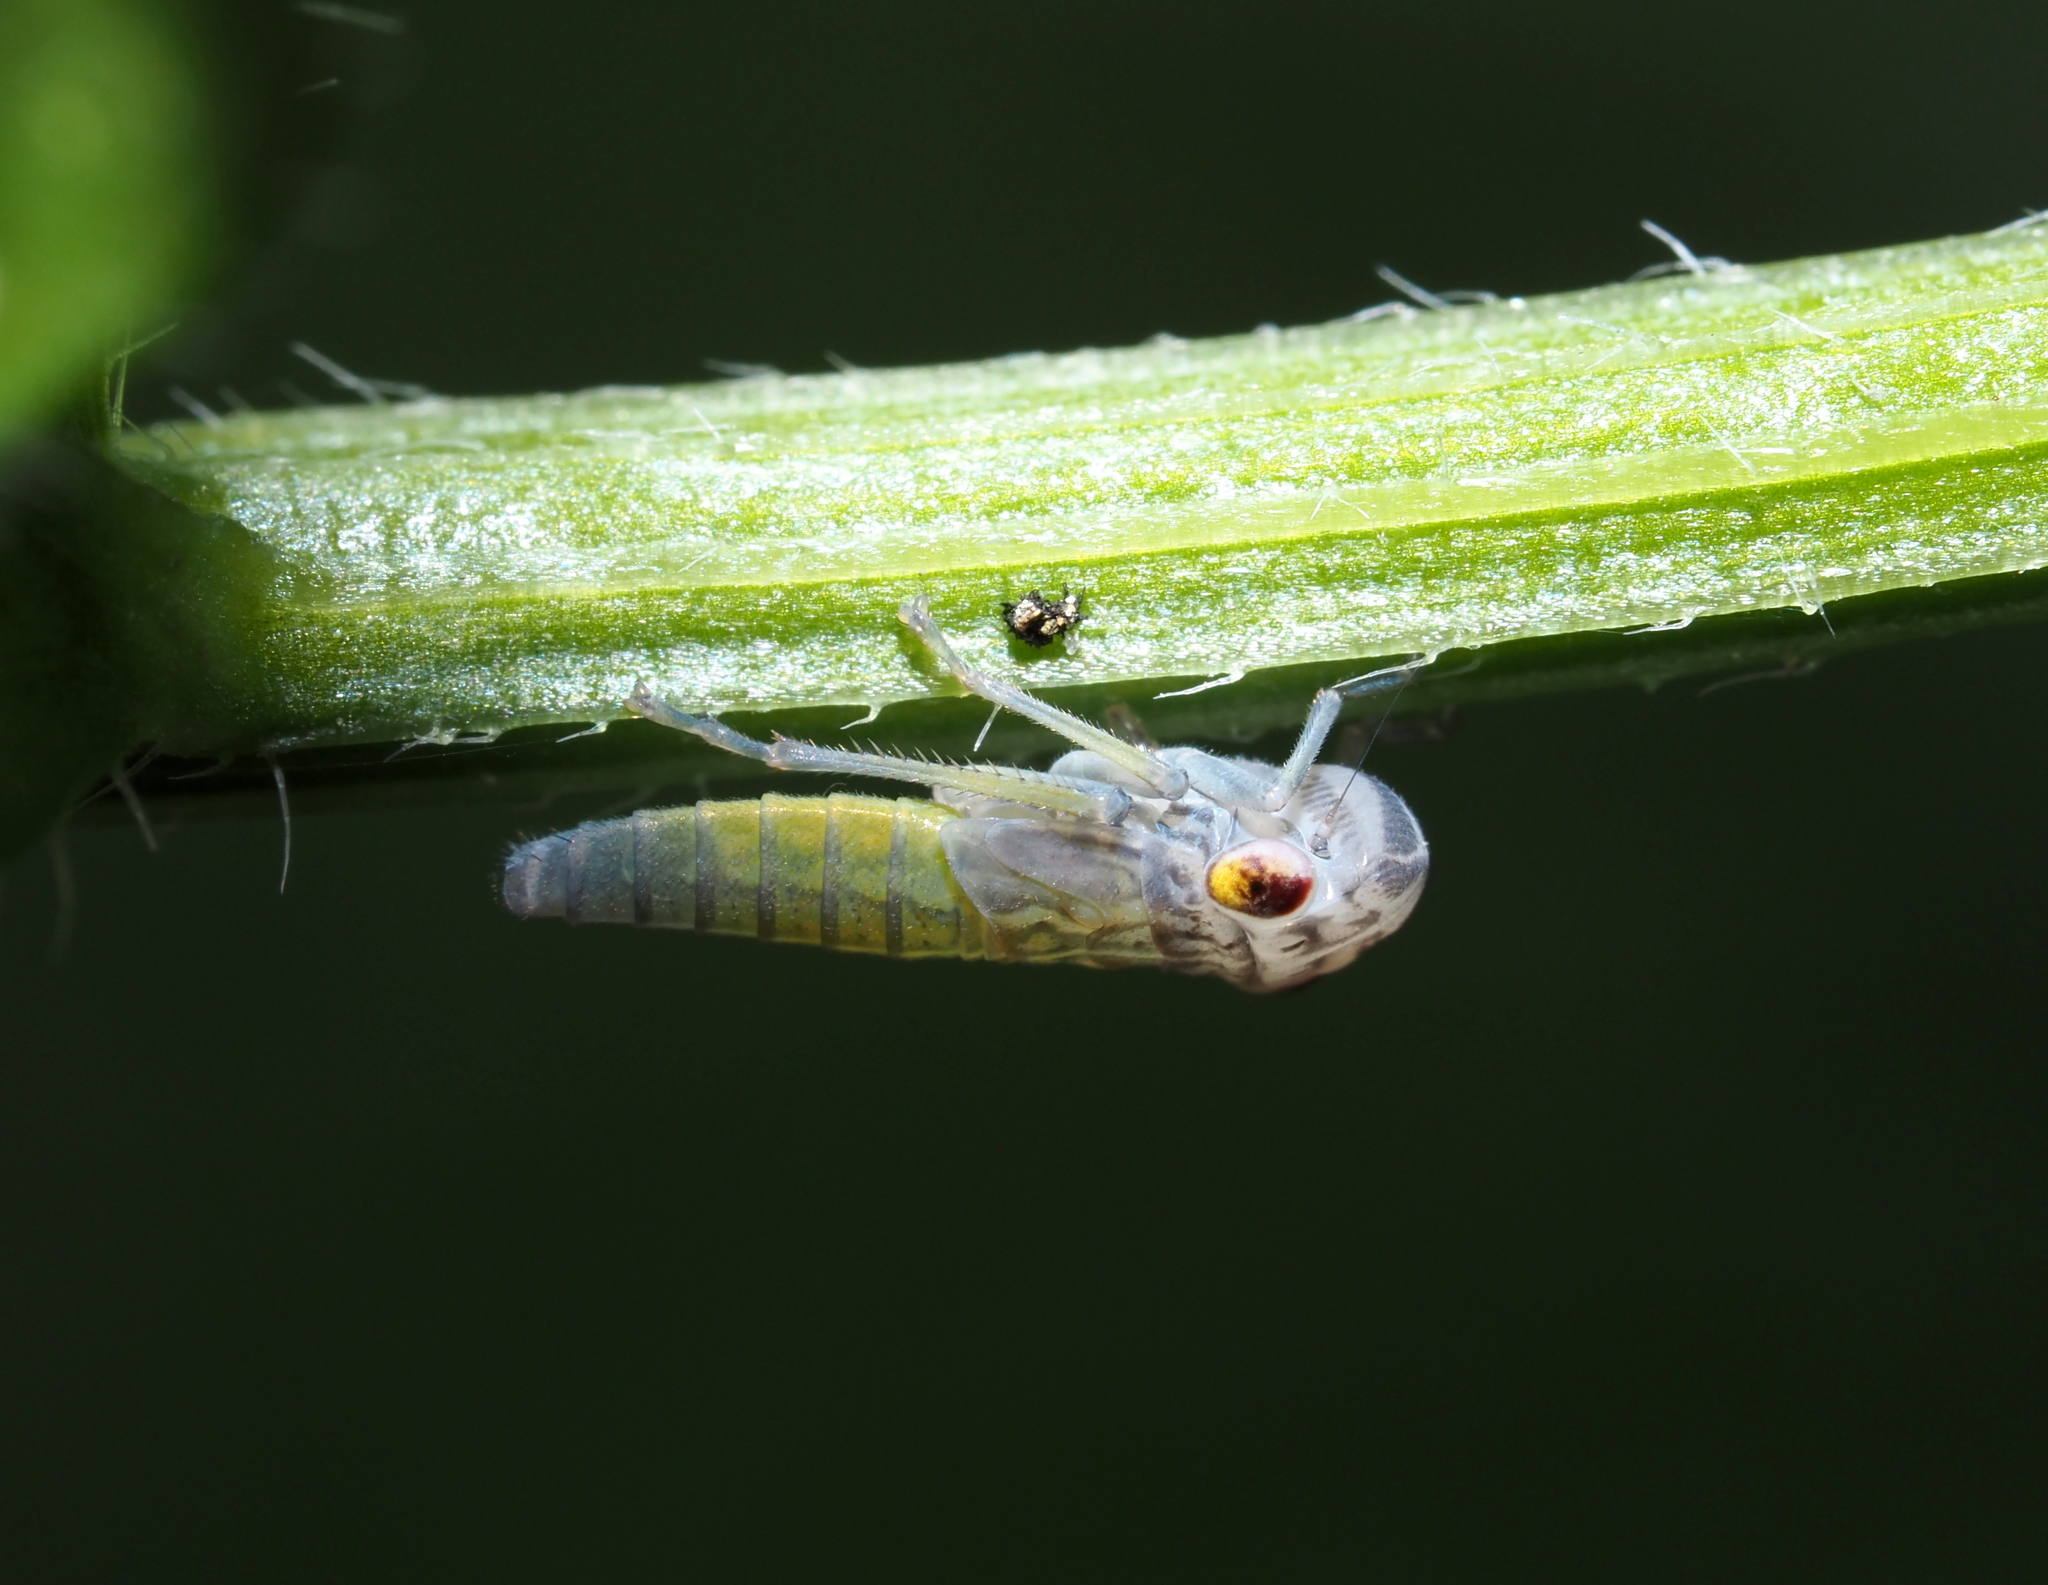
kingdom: Animalia
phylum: Arthropoda
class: Insecta
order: Hemiptera
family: Cicadellidae
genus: Oncometopia
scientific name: Oncometopia orbona
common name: Broad-headed sharpshooter
